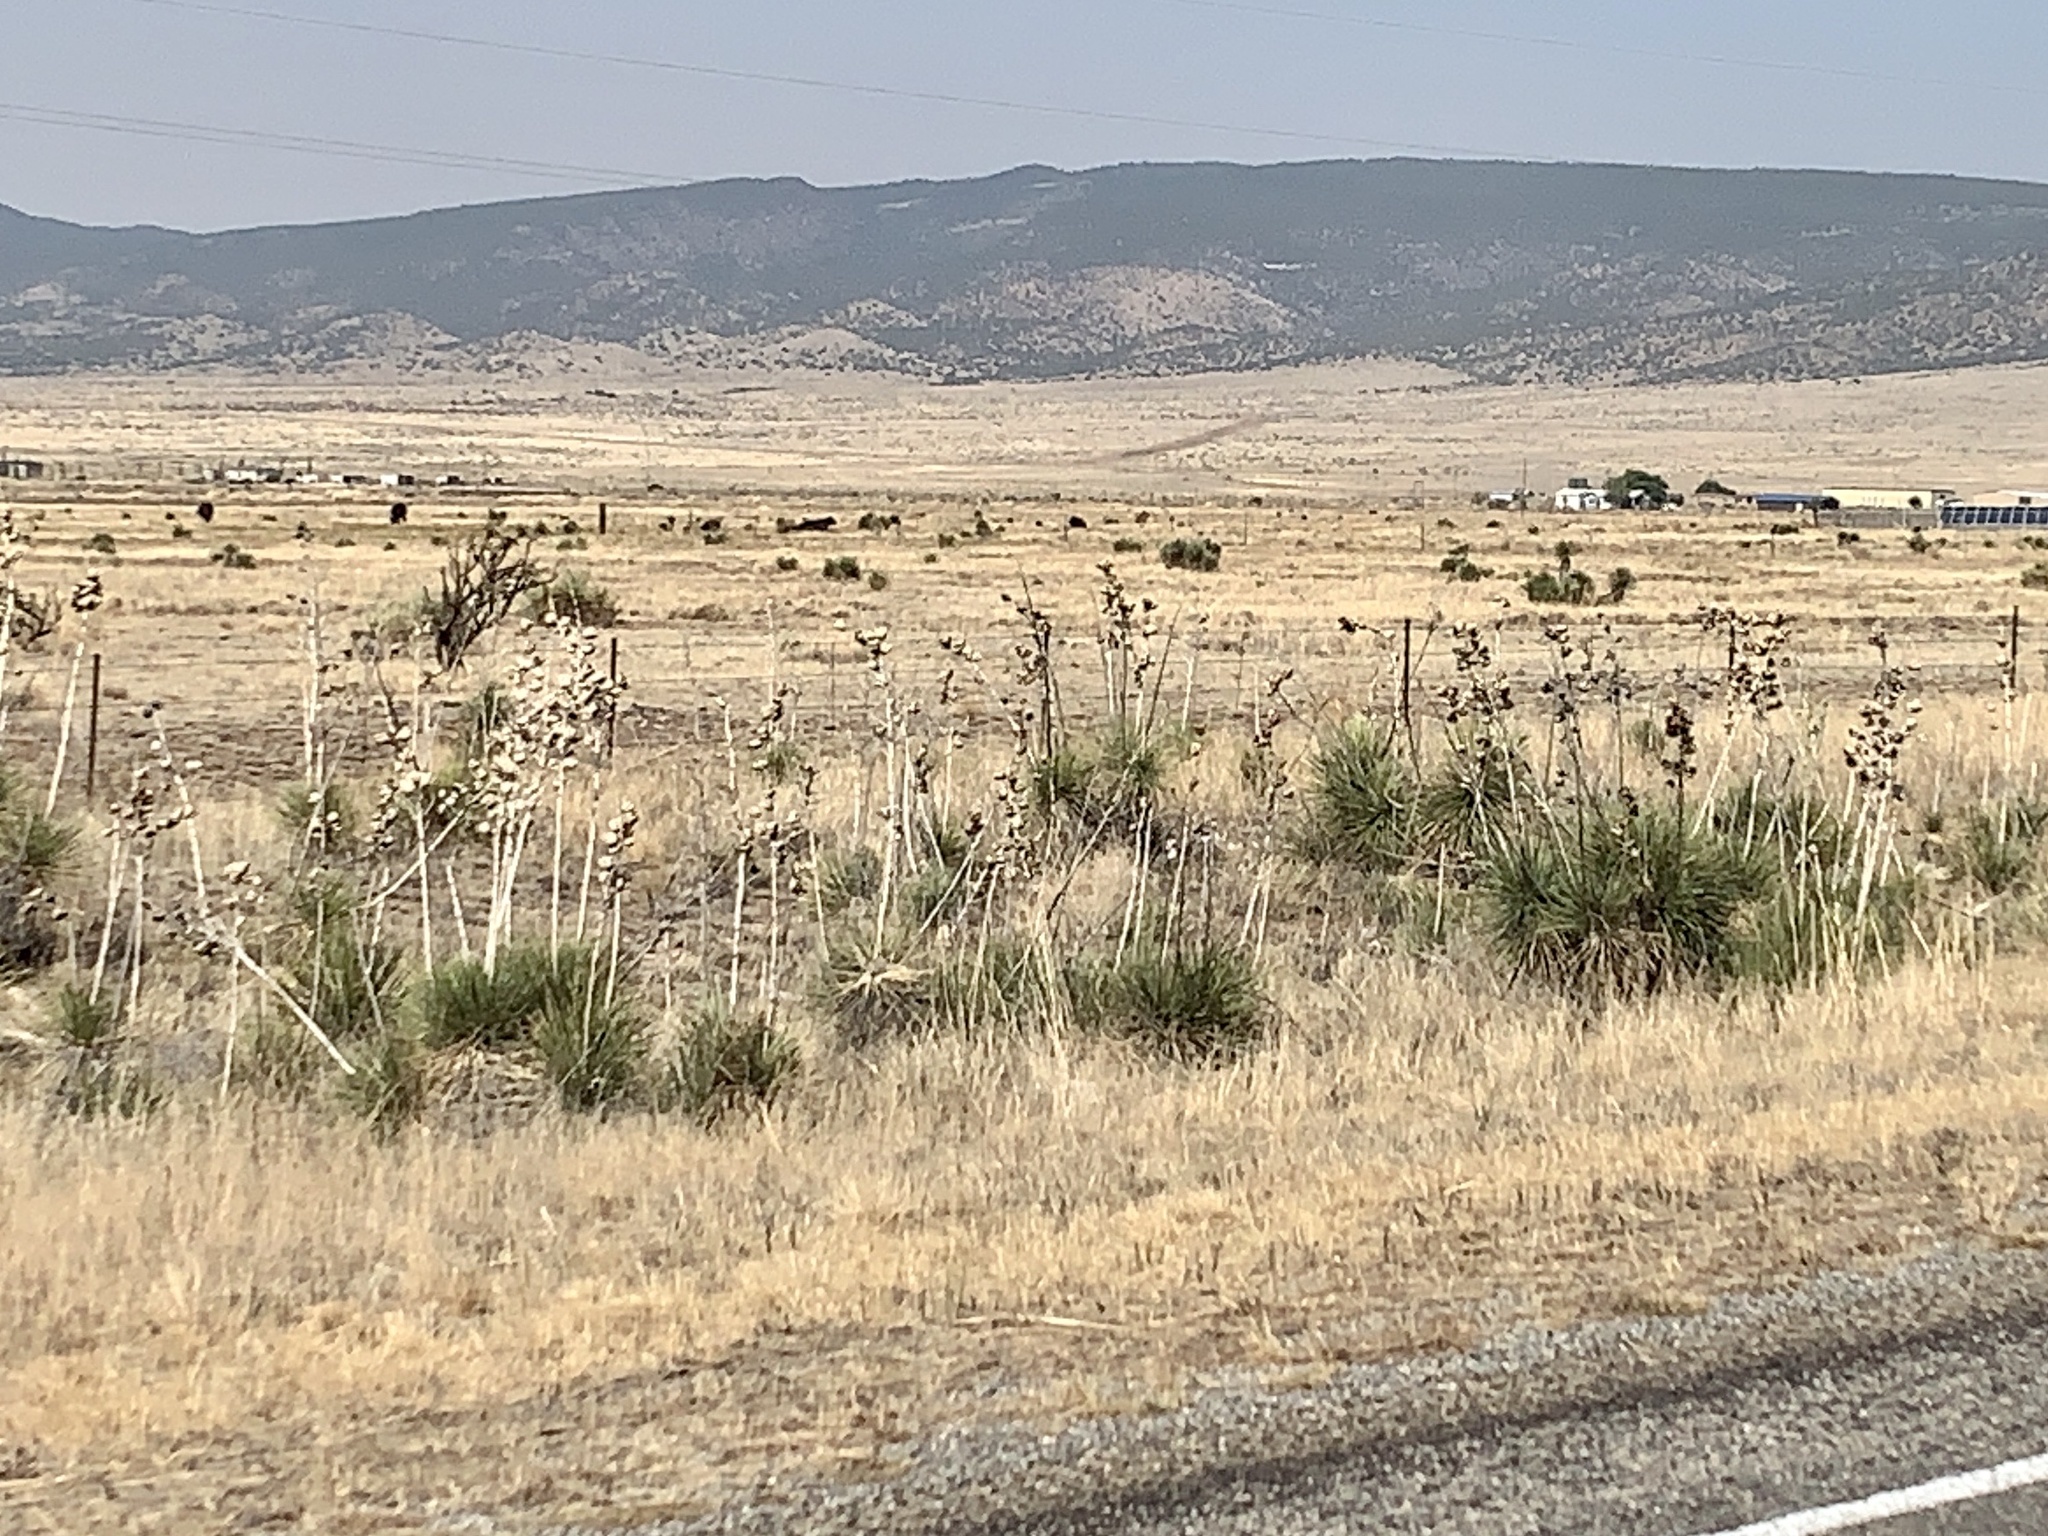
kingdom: Plantae
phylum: Tracheophyta
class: Liliopsida
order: Asparagales
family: Asparagaceae
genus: Yucca
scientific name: Yucca elata
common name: Palmella
